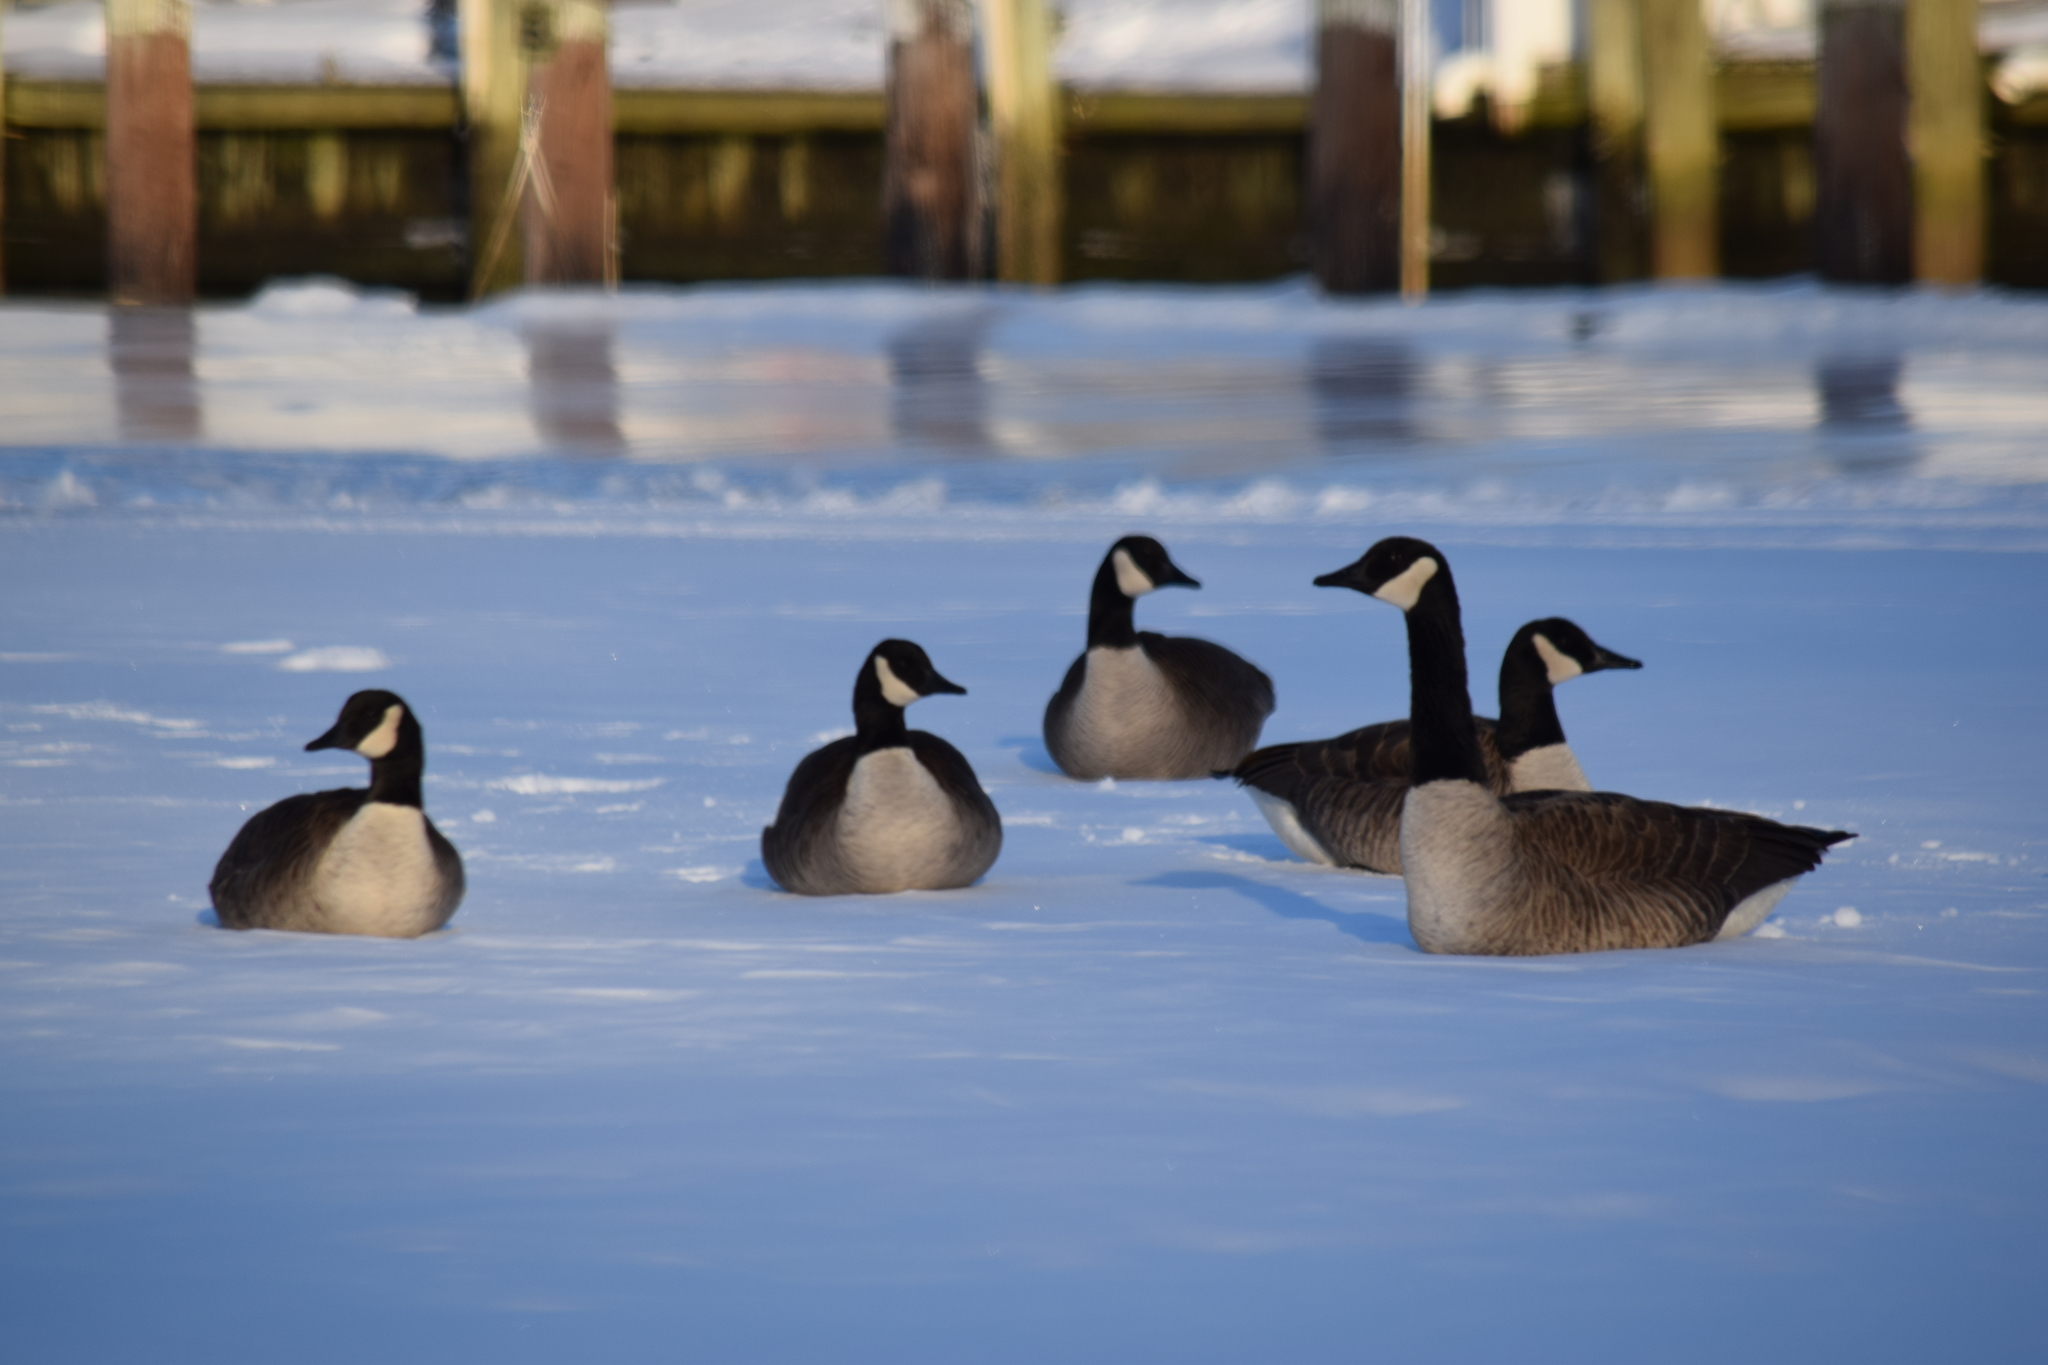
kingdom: Animalia
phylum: Chordata
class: Aves
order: Anseriformes
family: Anatidae
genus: Branta
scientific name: Branta canadensis
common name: Canada goose
